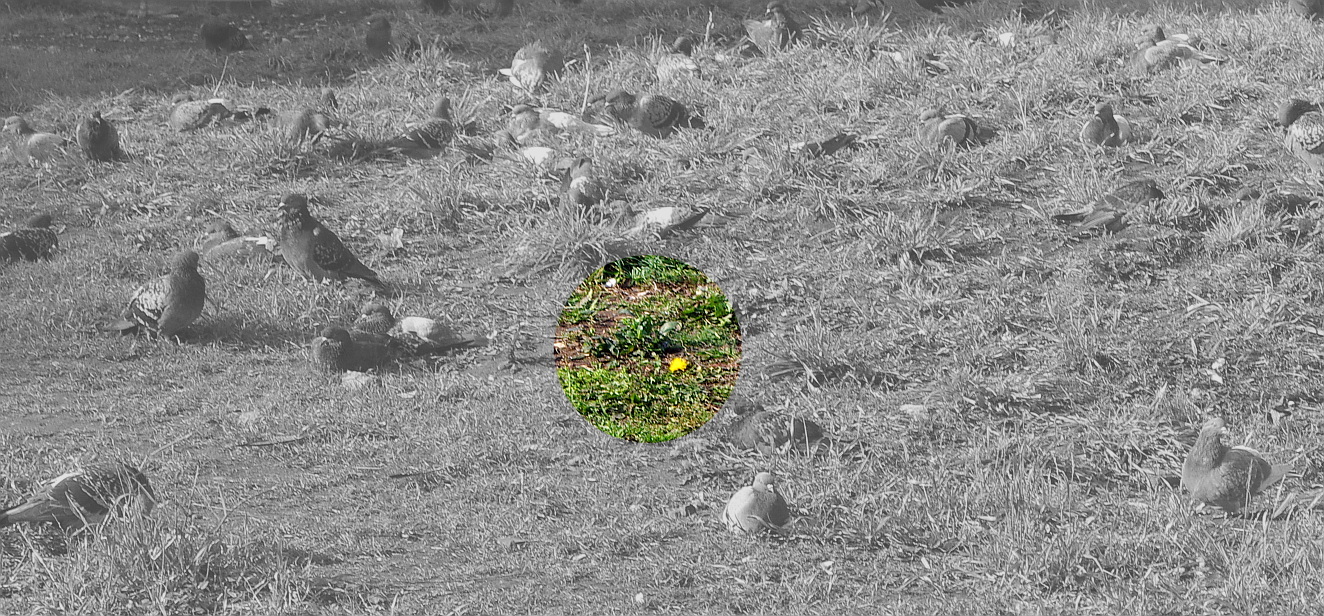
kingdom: Plantae
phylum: Tracheophyta
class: Magnoliopsida
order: Asterales
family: Asteraceae
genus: Taraxacum
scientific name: Taraxacum officinale
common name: Common dandelion
